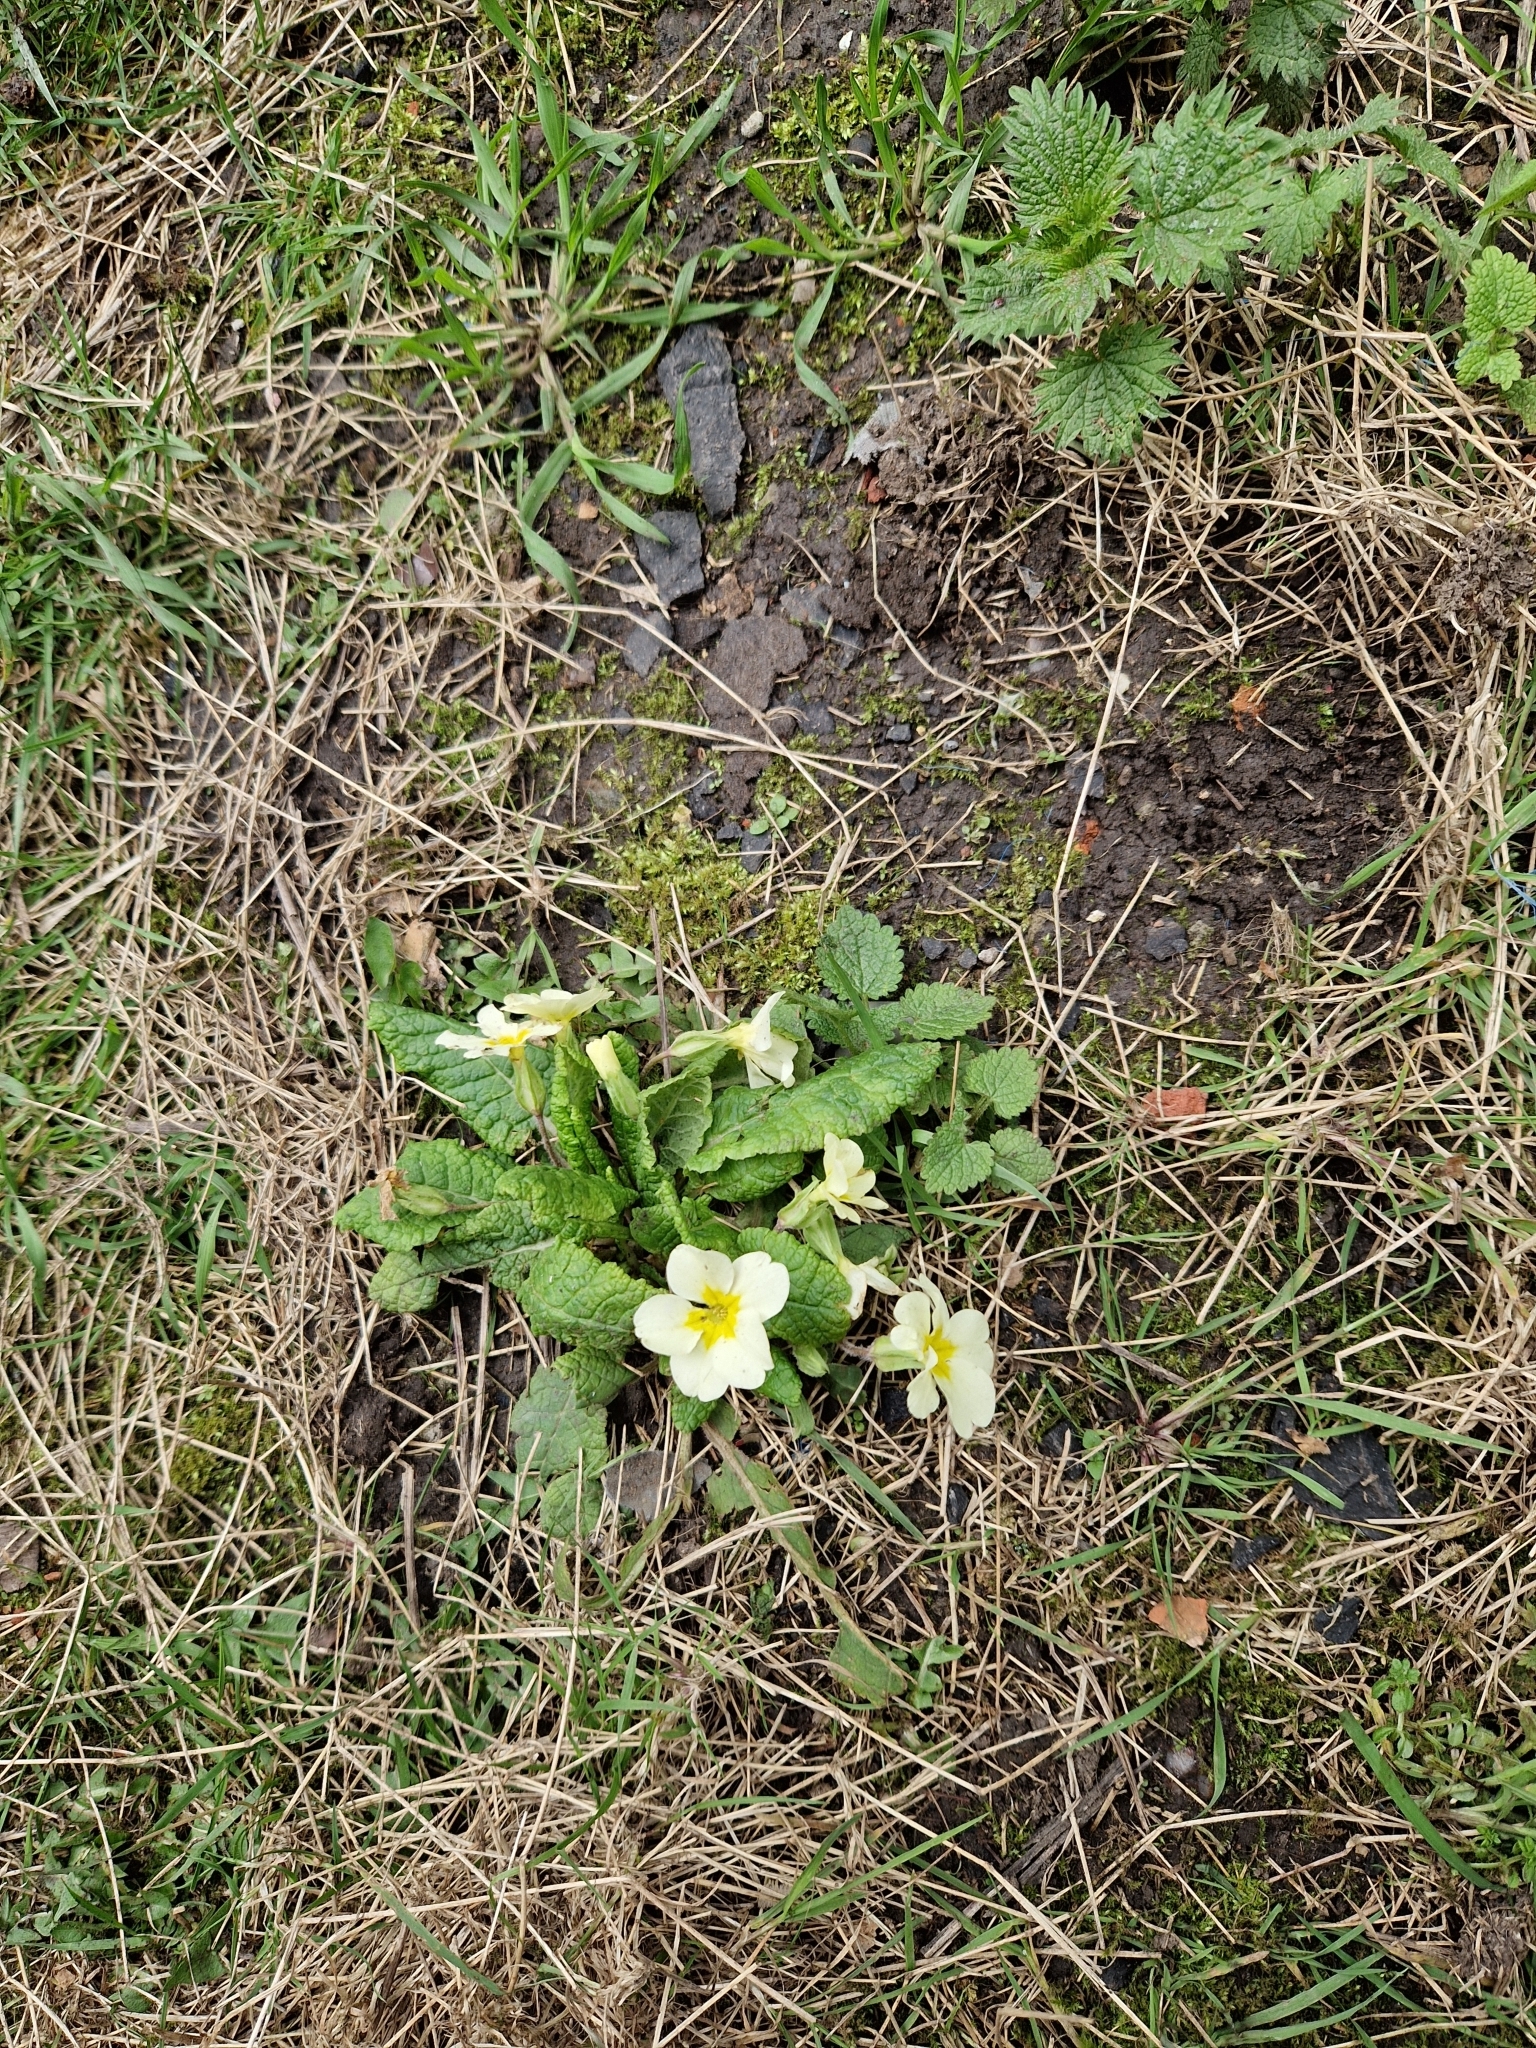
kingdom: Plantae
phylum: Tracheophyta
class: Magnoliopsida
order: Ericales
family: Primulaceae
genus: Primula
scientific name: Primula vulgaris
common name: Primrose
